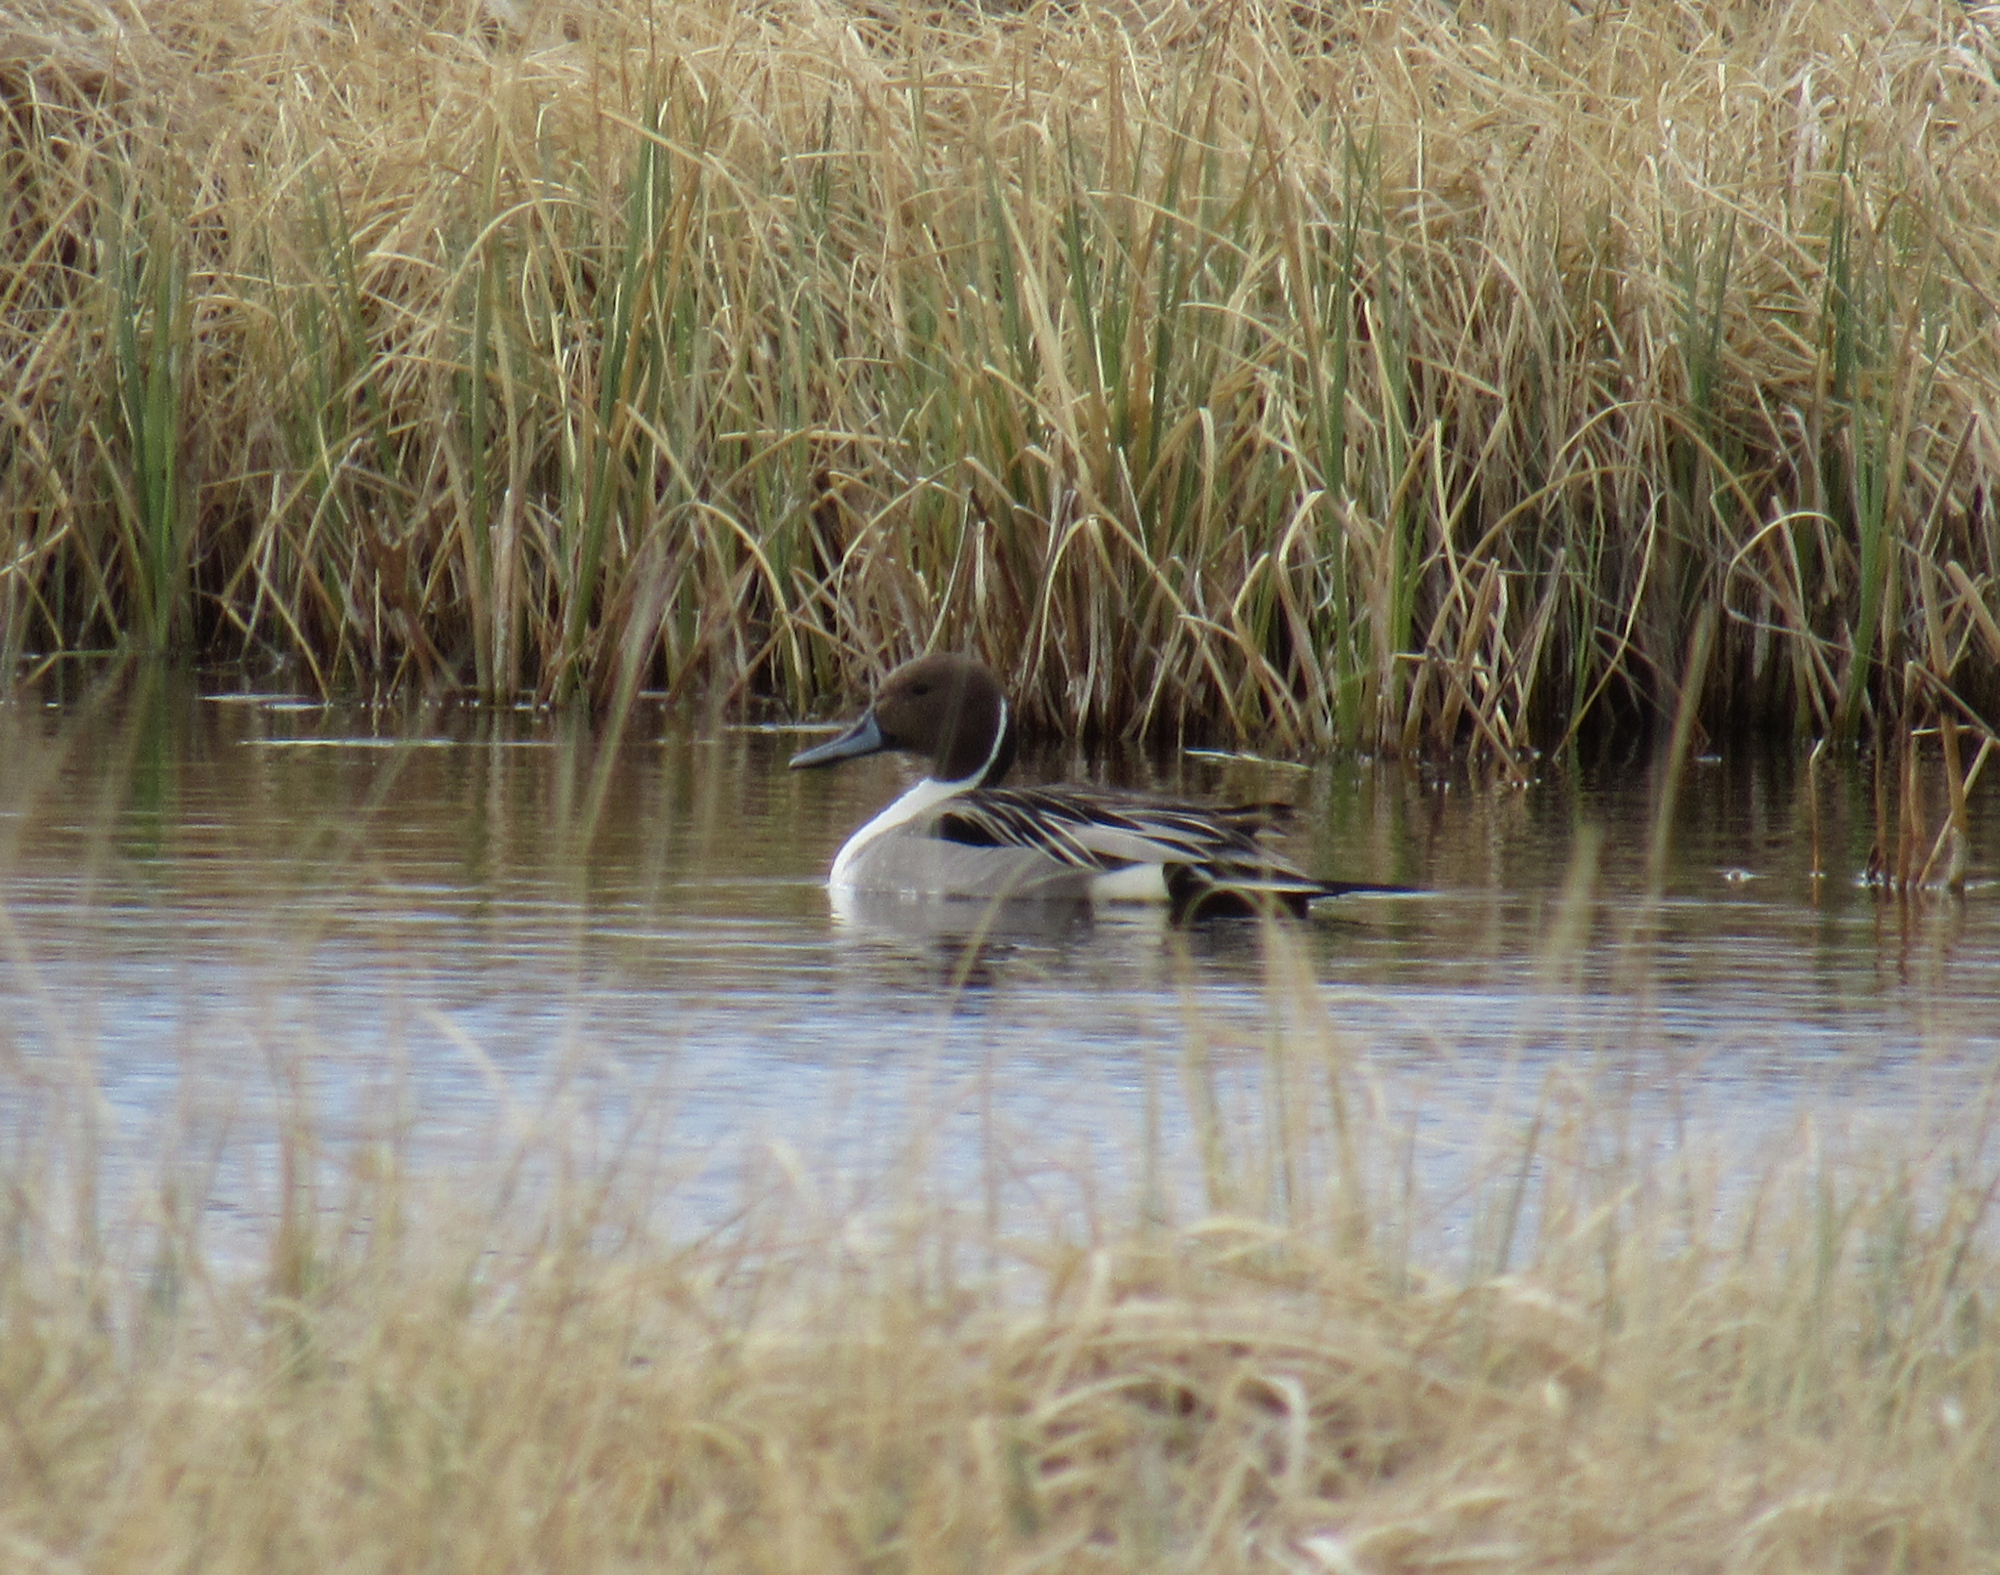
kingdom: Animalia
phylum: Chordata
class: Aves
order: Anseriformes
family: Anatidae
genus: Anas
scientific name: Anas acuta
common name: Northern pintail
